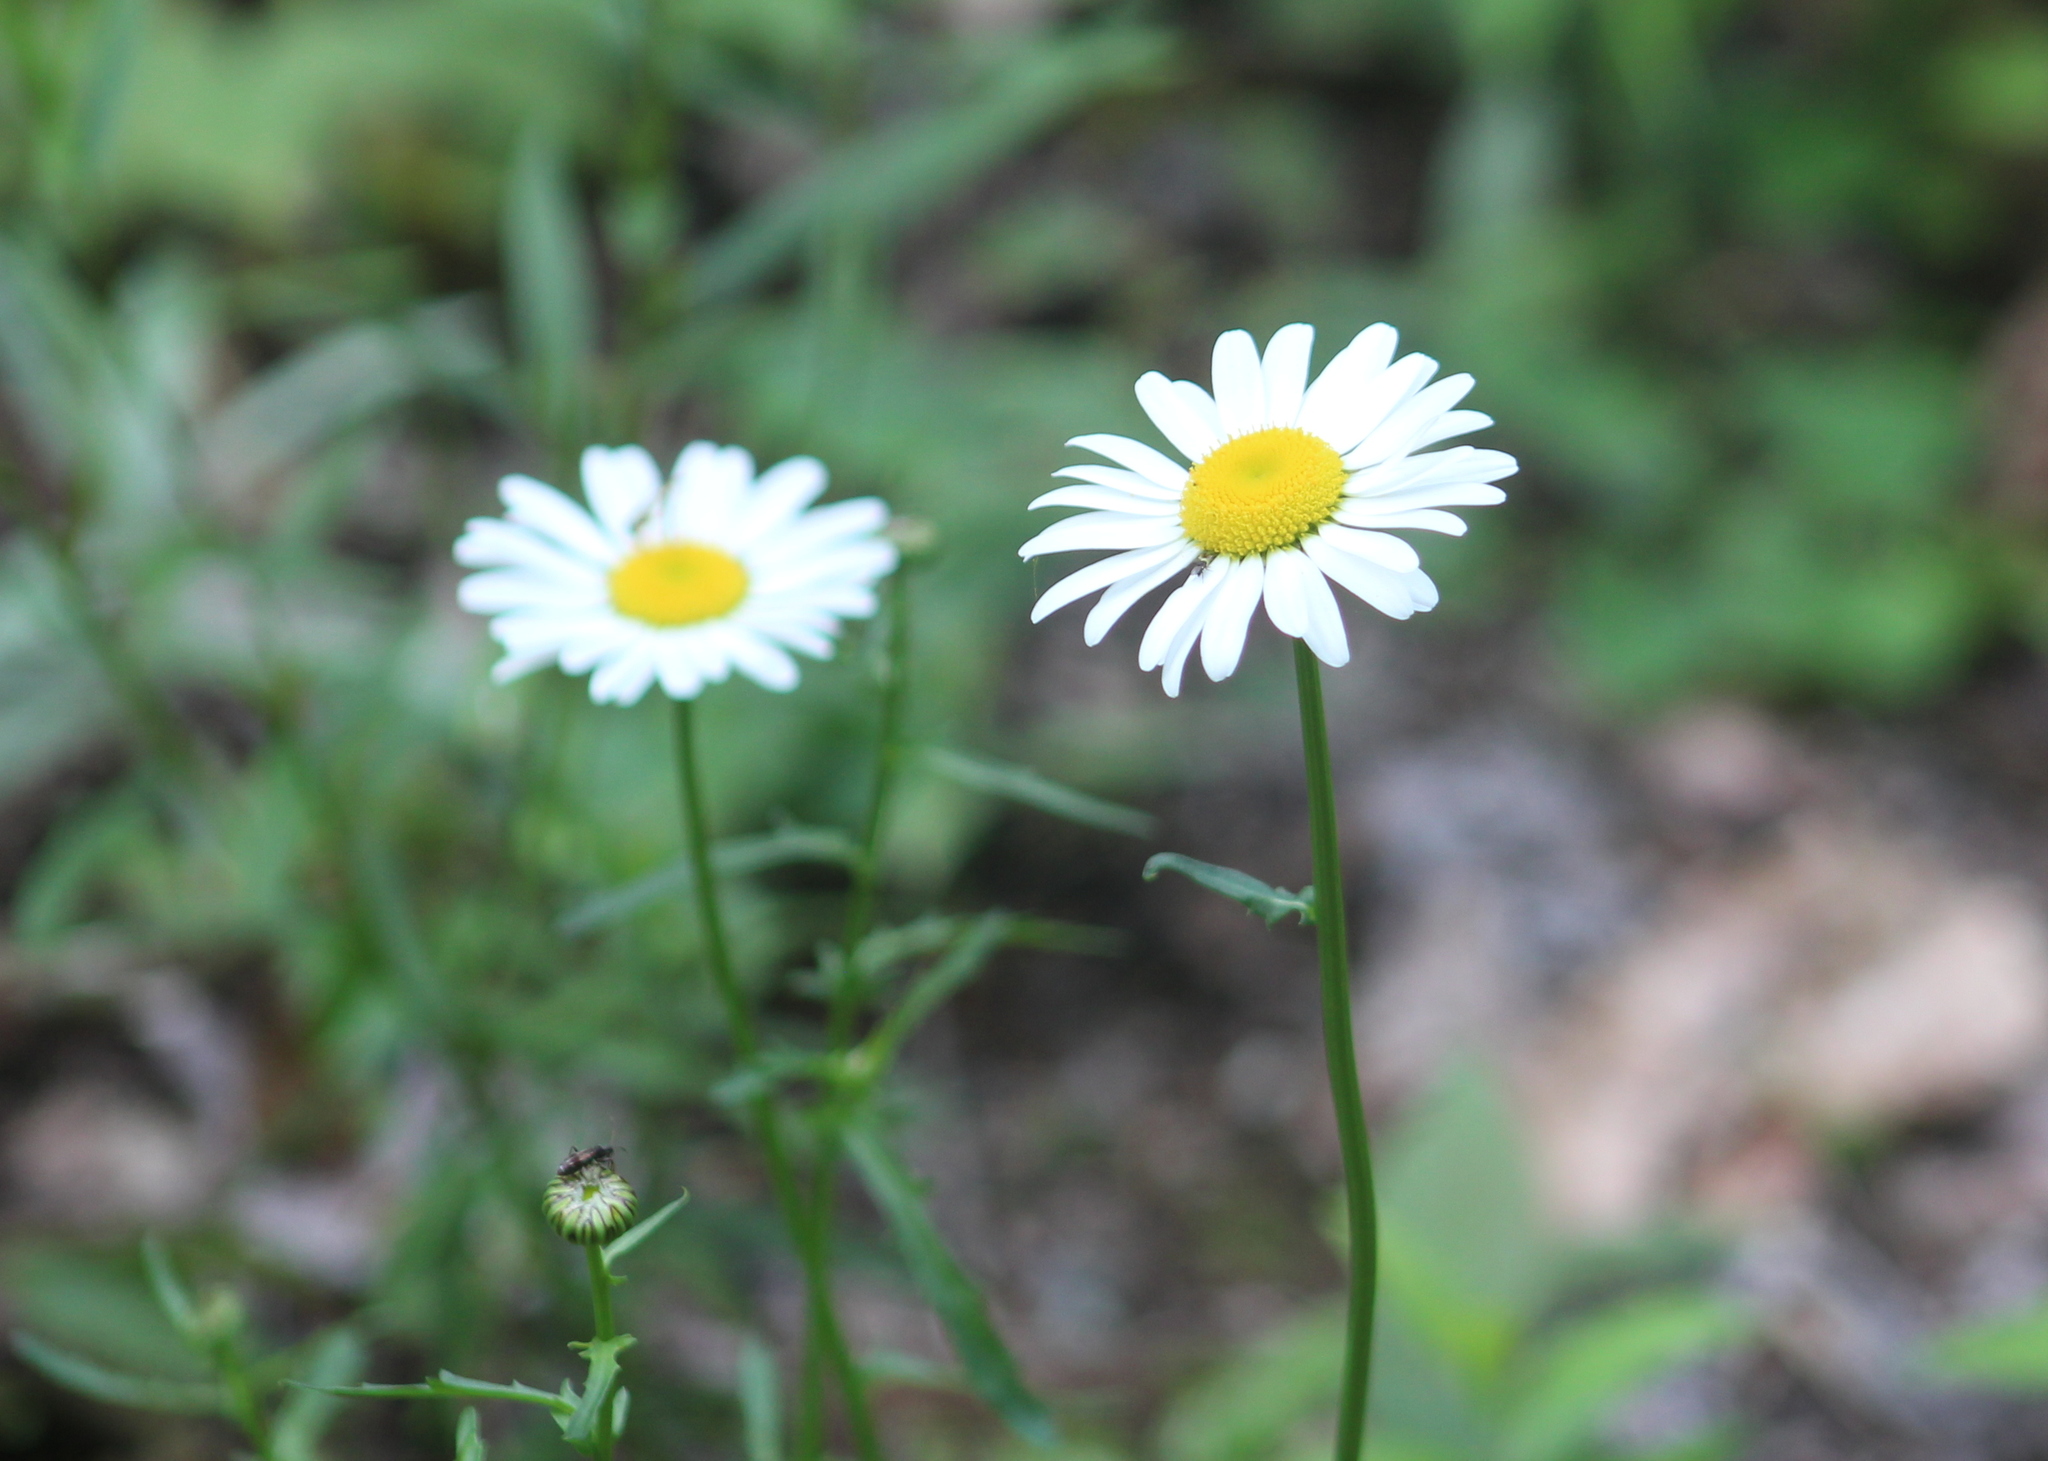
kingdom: Plantae
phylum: Tracheophyta
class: Magnoliopsida
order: Asterales
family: Asteraceae
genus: Leucanthemum
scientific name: Leucanthemum vulgare
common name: Oxeye daisy
